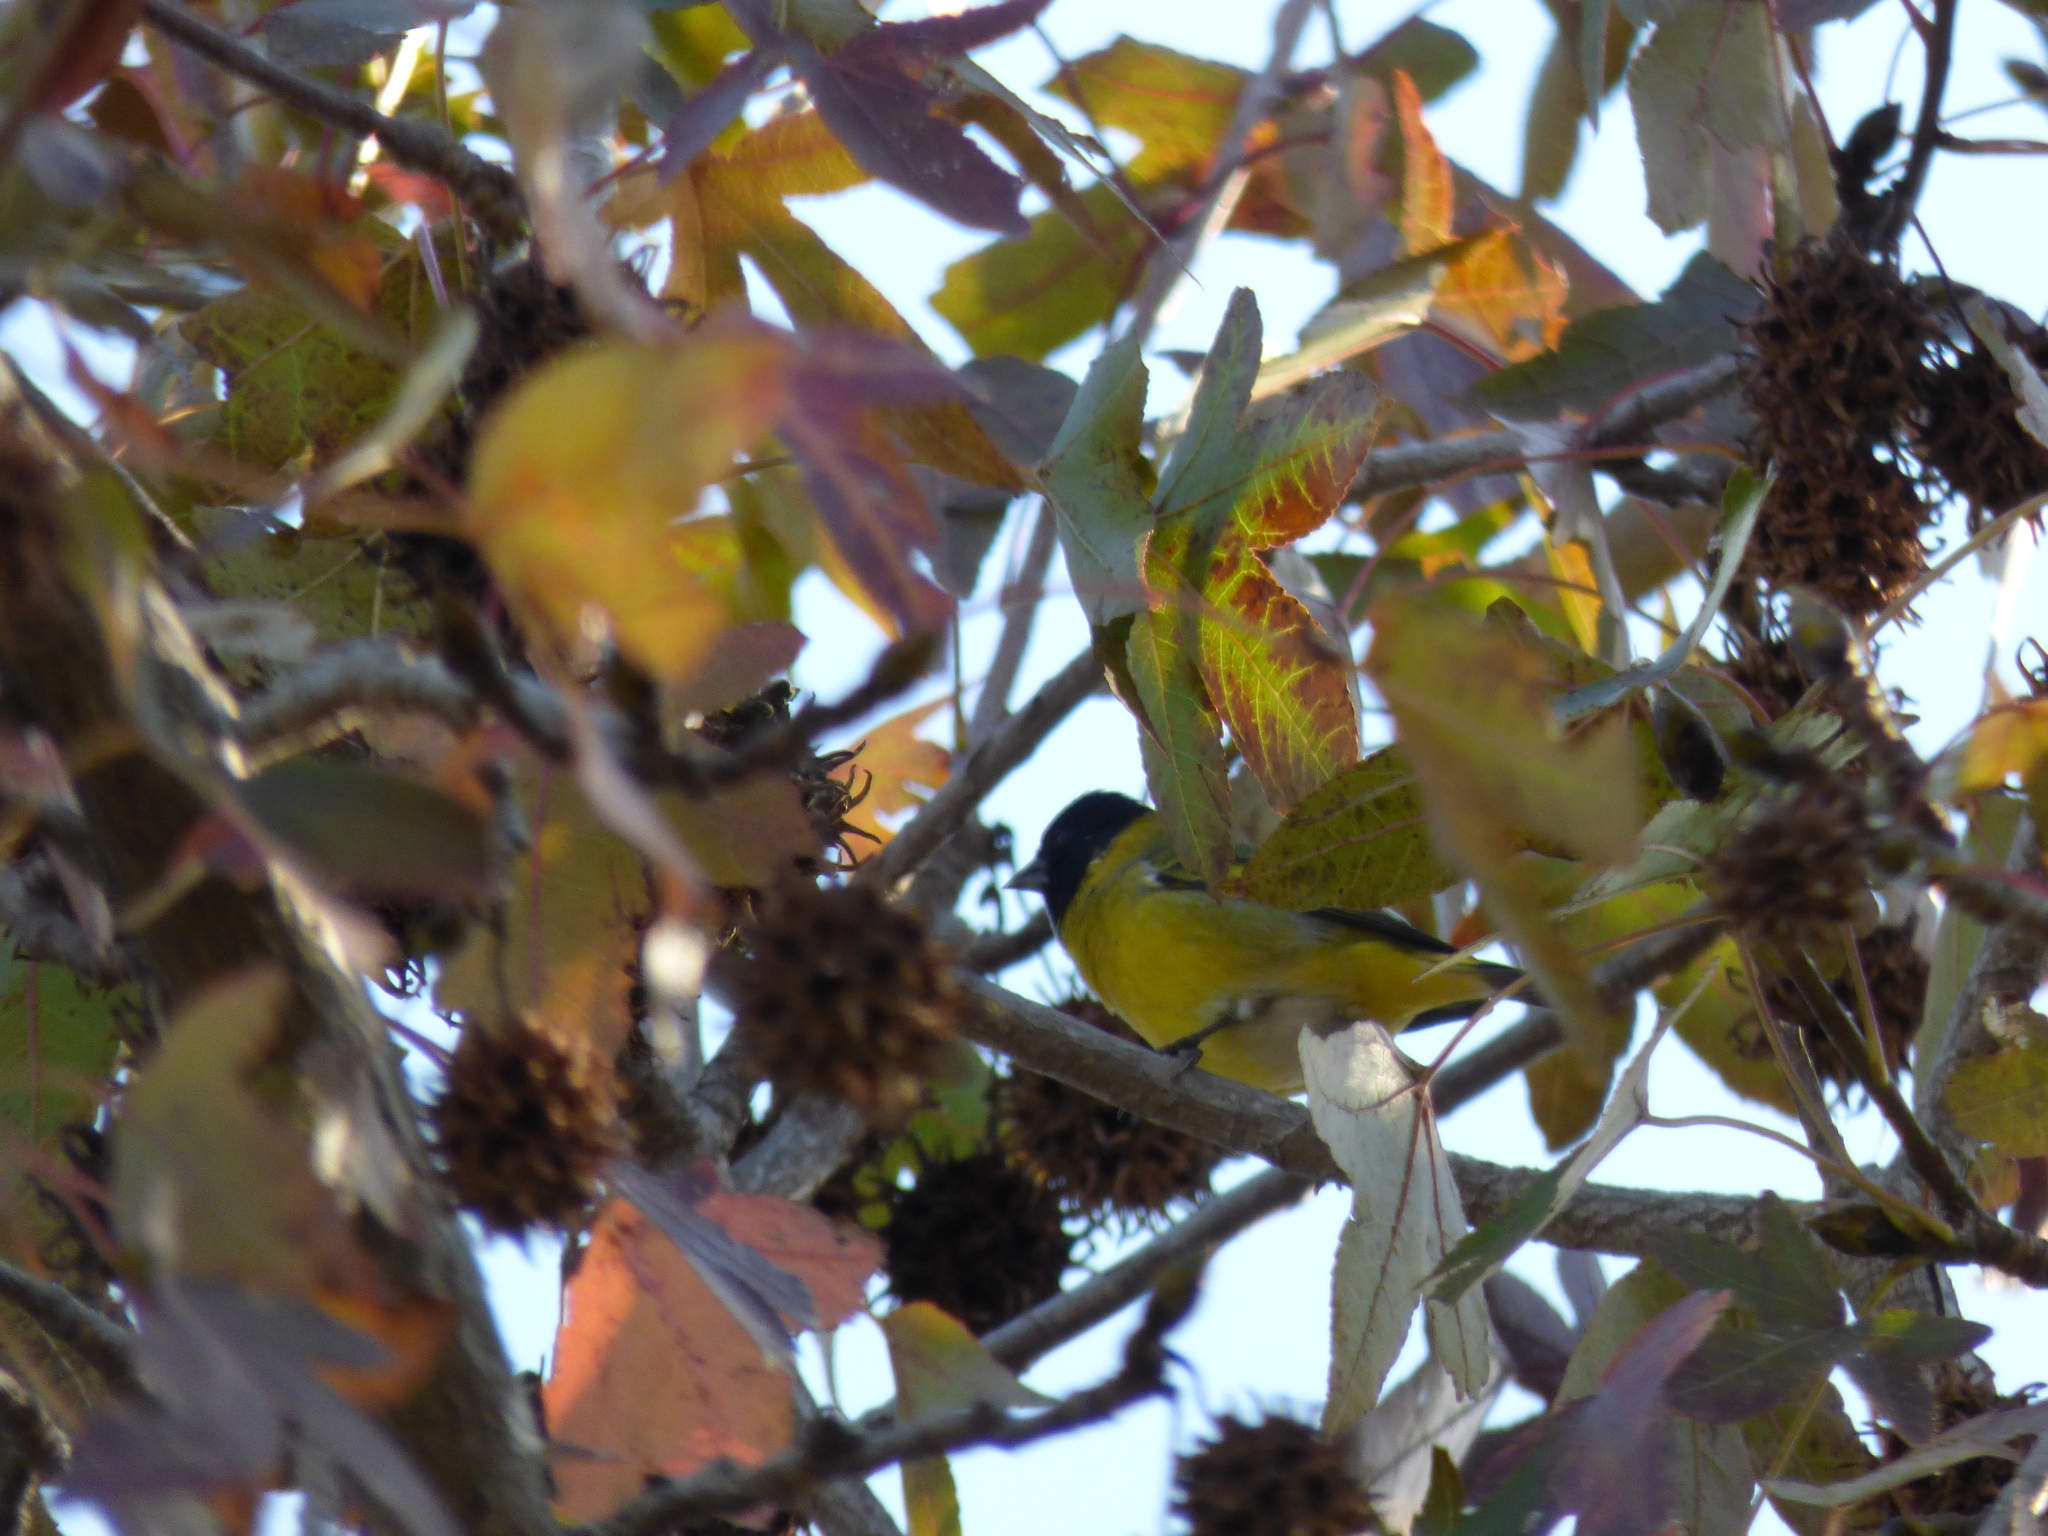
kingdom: Animalia
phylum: Chordata
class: Aves
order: Passeriformes
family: Fringillidae
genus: Spinus
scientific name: Spinus magellanicus
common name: Hooded siskin
